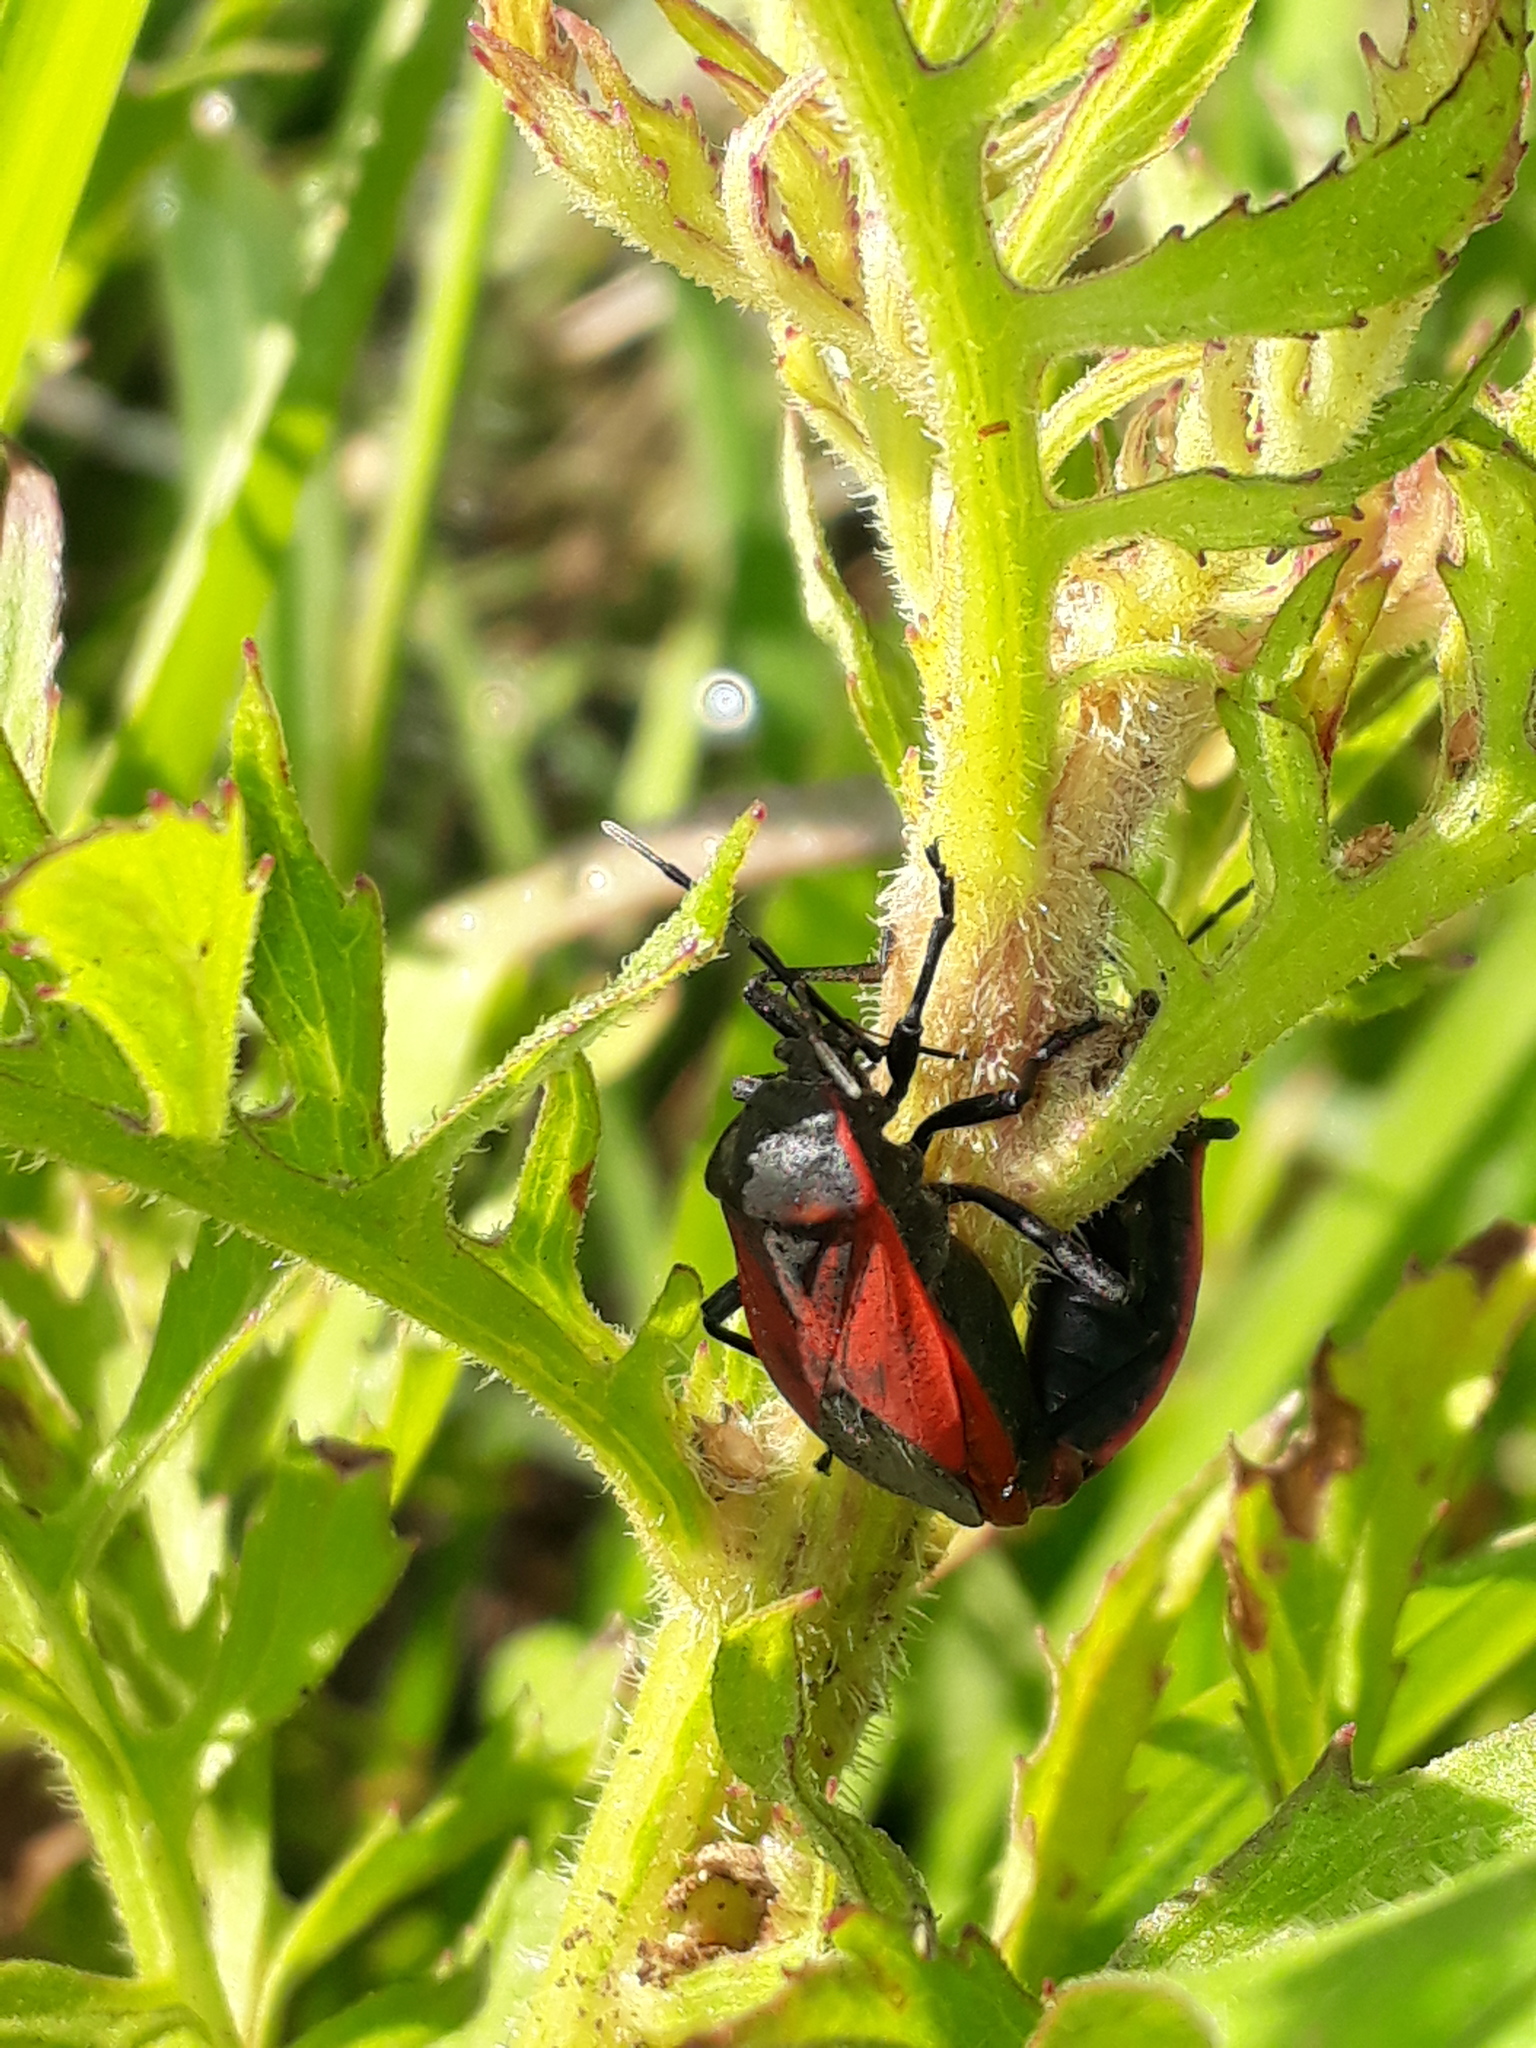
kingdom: Animalia
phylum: Arthropoda
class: Insecta
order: Hemiptera
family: Largidae
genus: Largus
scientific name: Largus rufipennis
